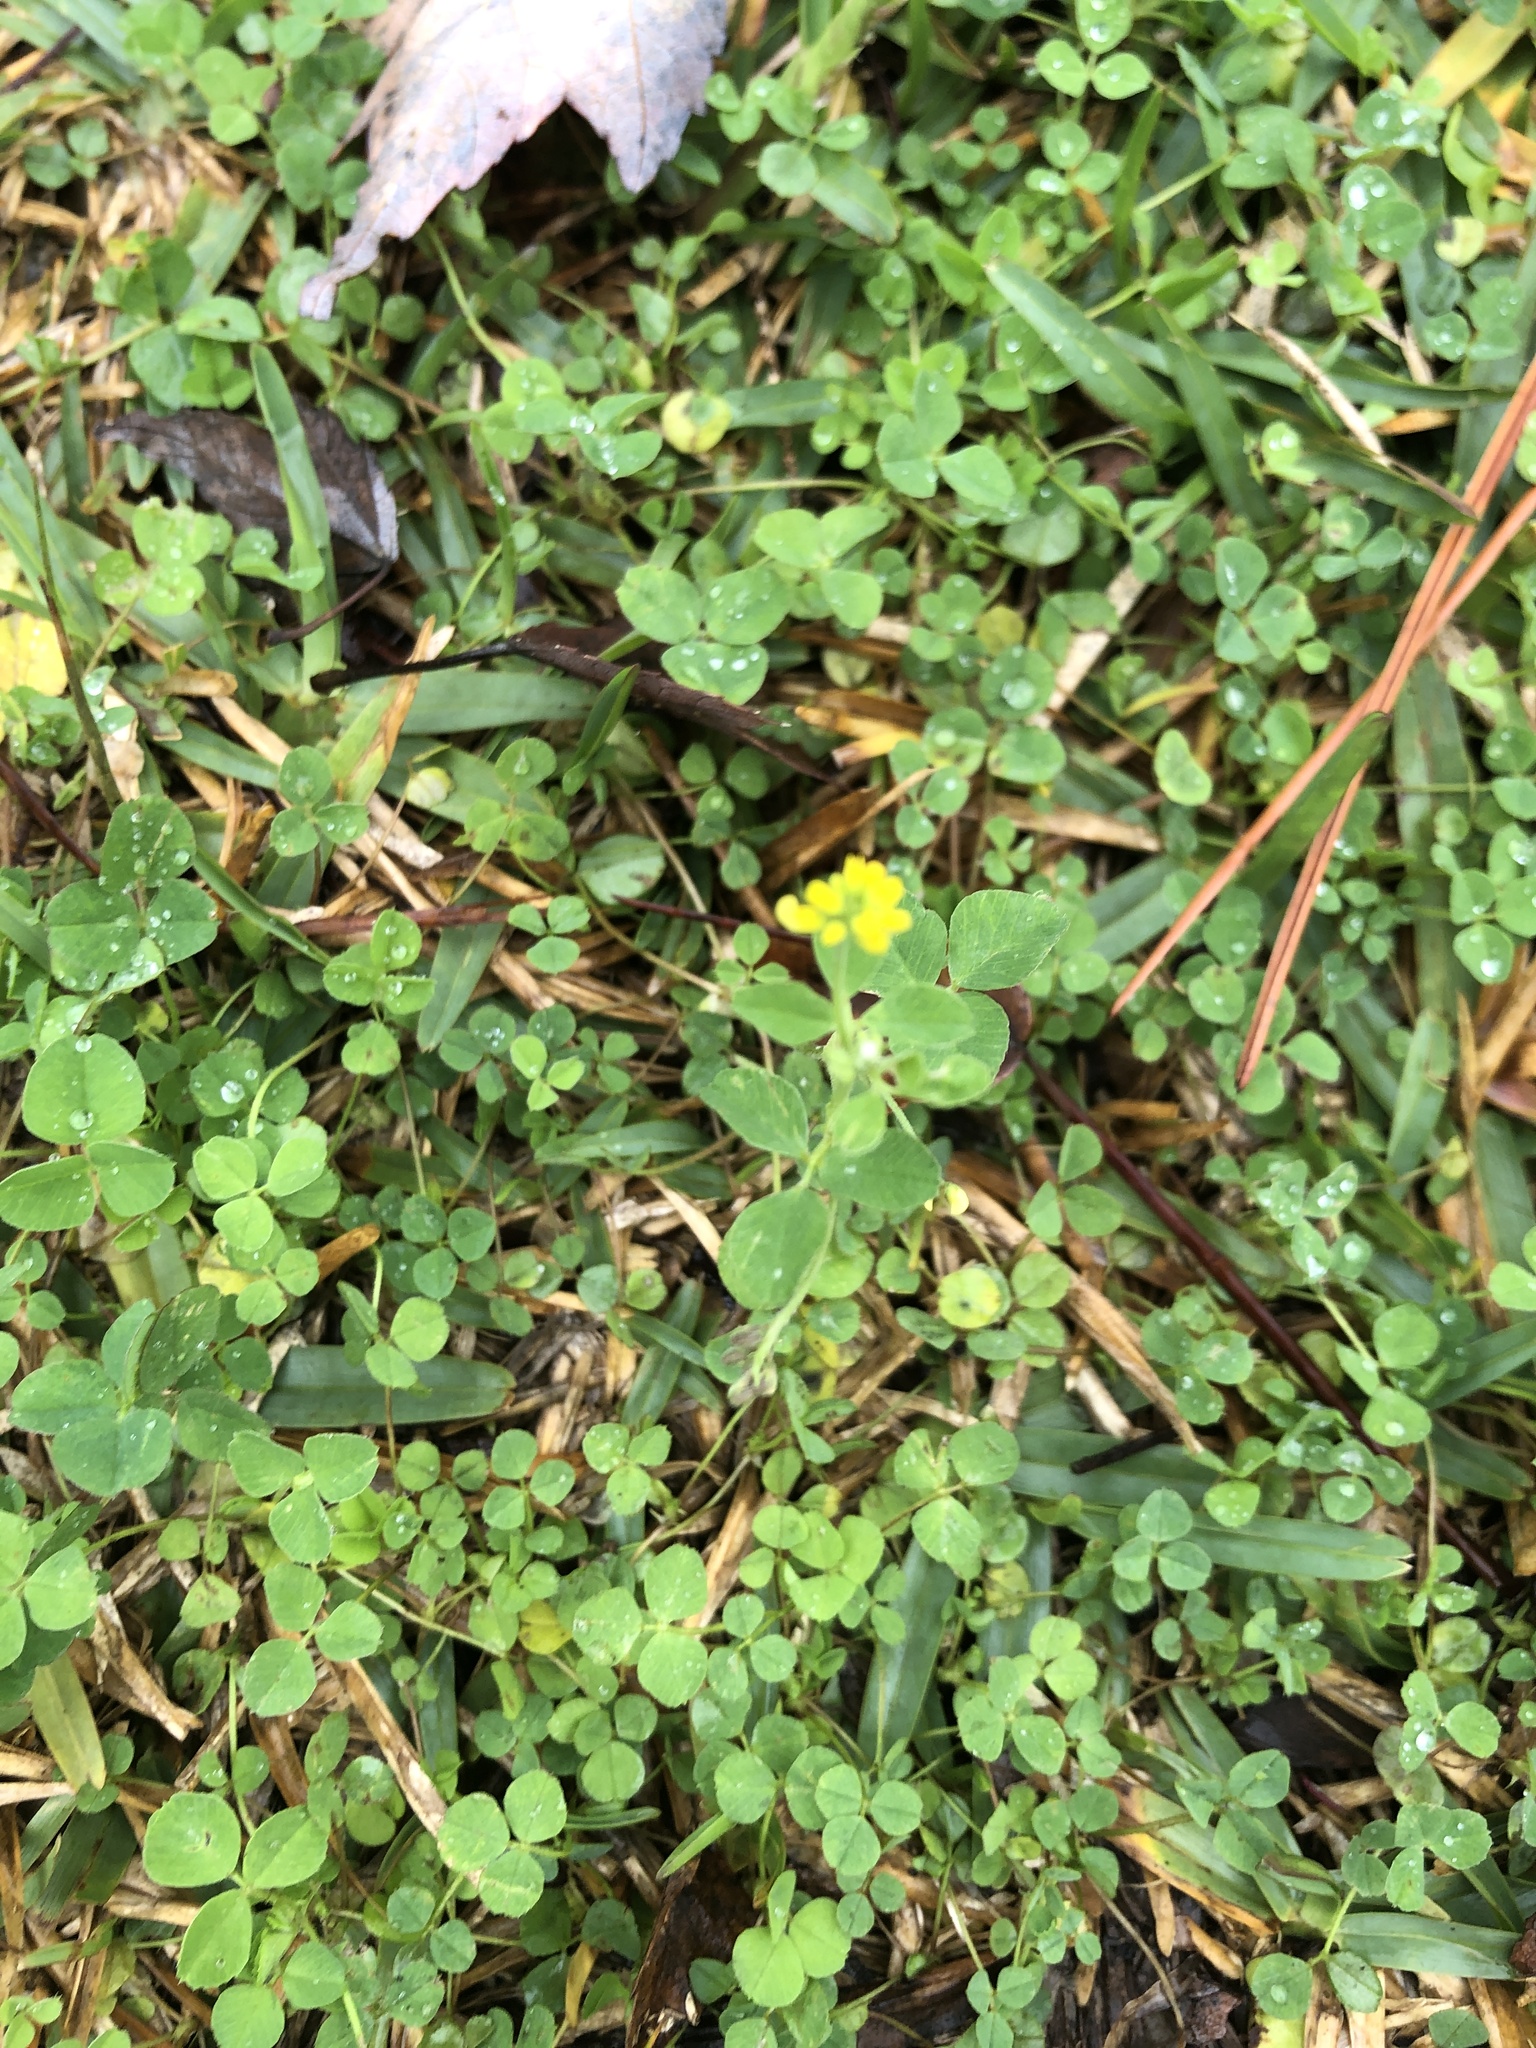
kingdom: Plantae
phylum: Tracheophyta
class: Magnoliopsida
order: Fabales
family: Fabaceae
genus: Medicago
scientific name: Medicago lupulina
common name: Black medick
